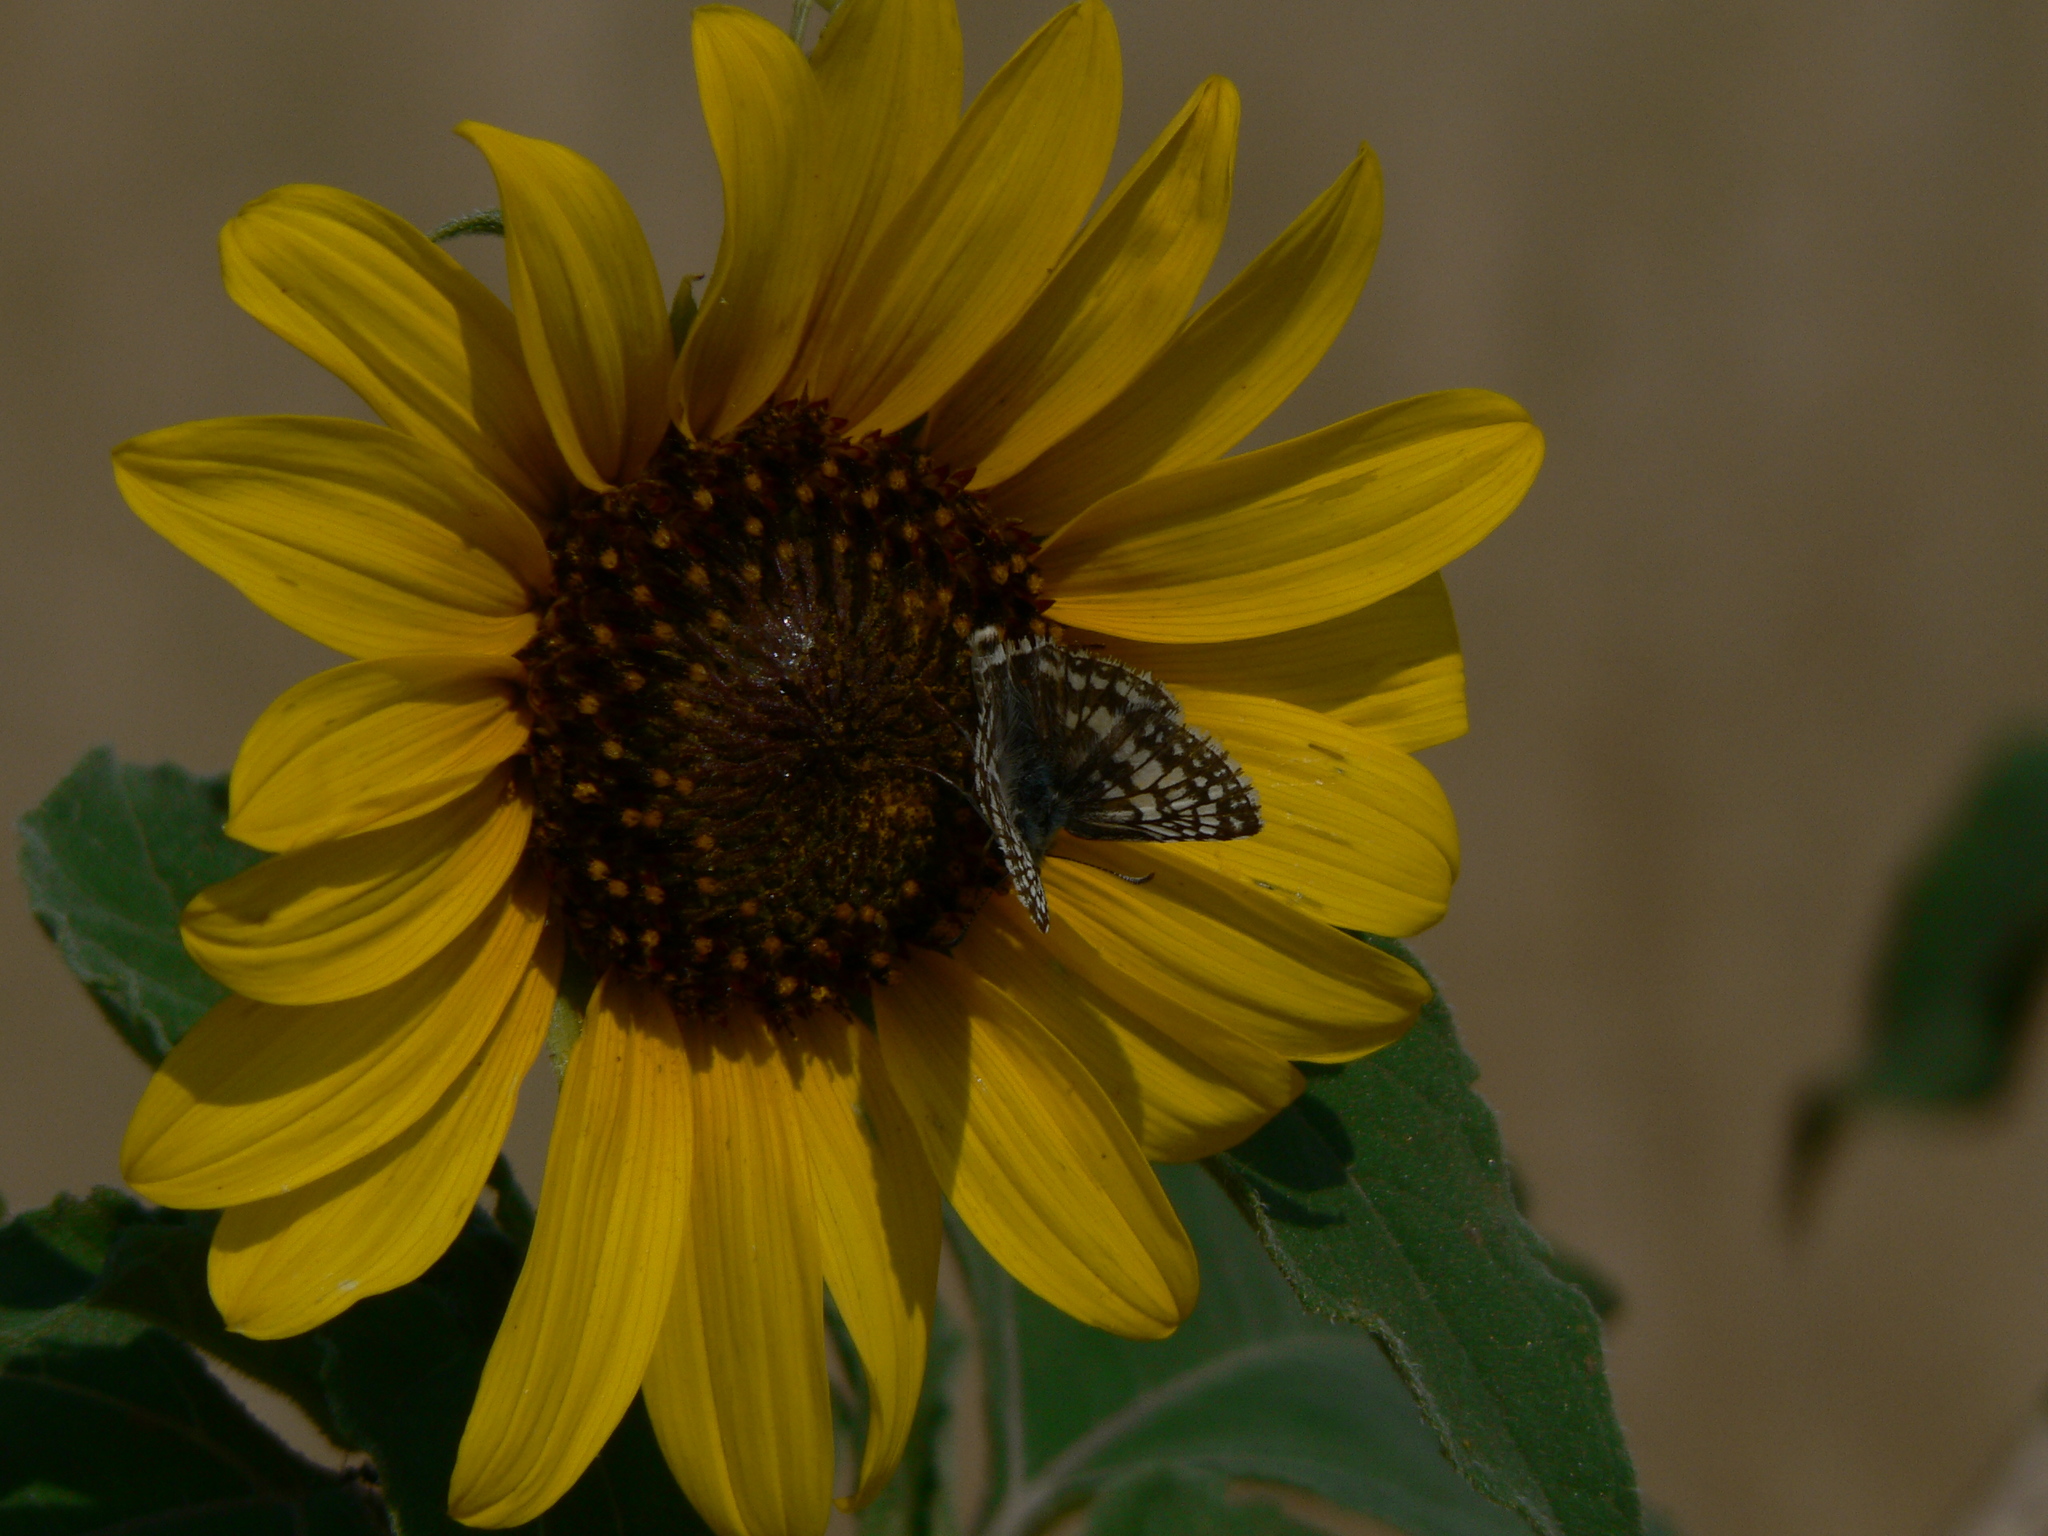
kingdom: Animalia
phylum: Arthropoda
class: Insecta
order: Lepidoptera
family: Hesperiidae
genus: Burnsius
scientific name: Burnsius communis
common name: Common checkered-skipper
